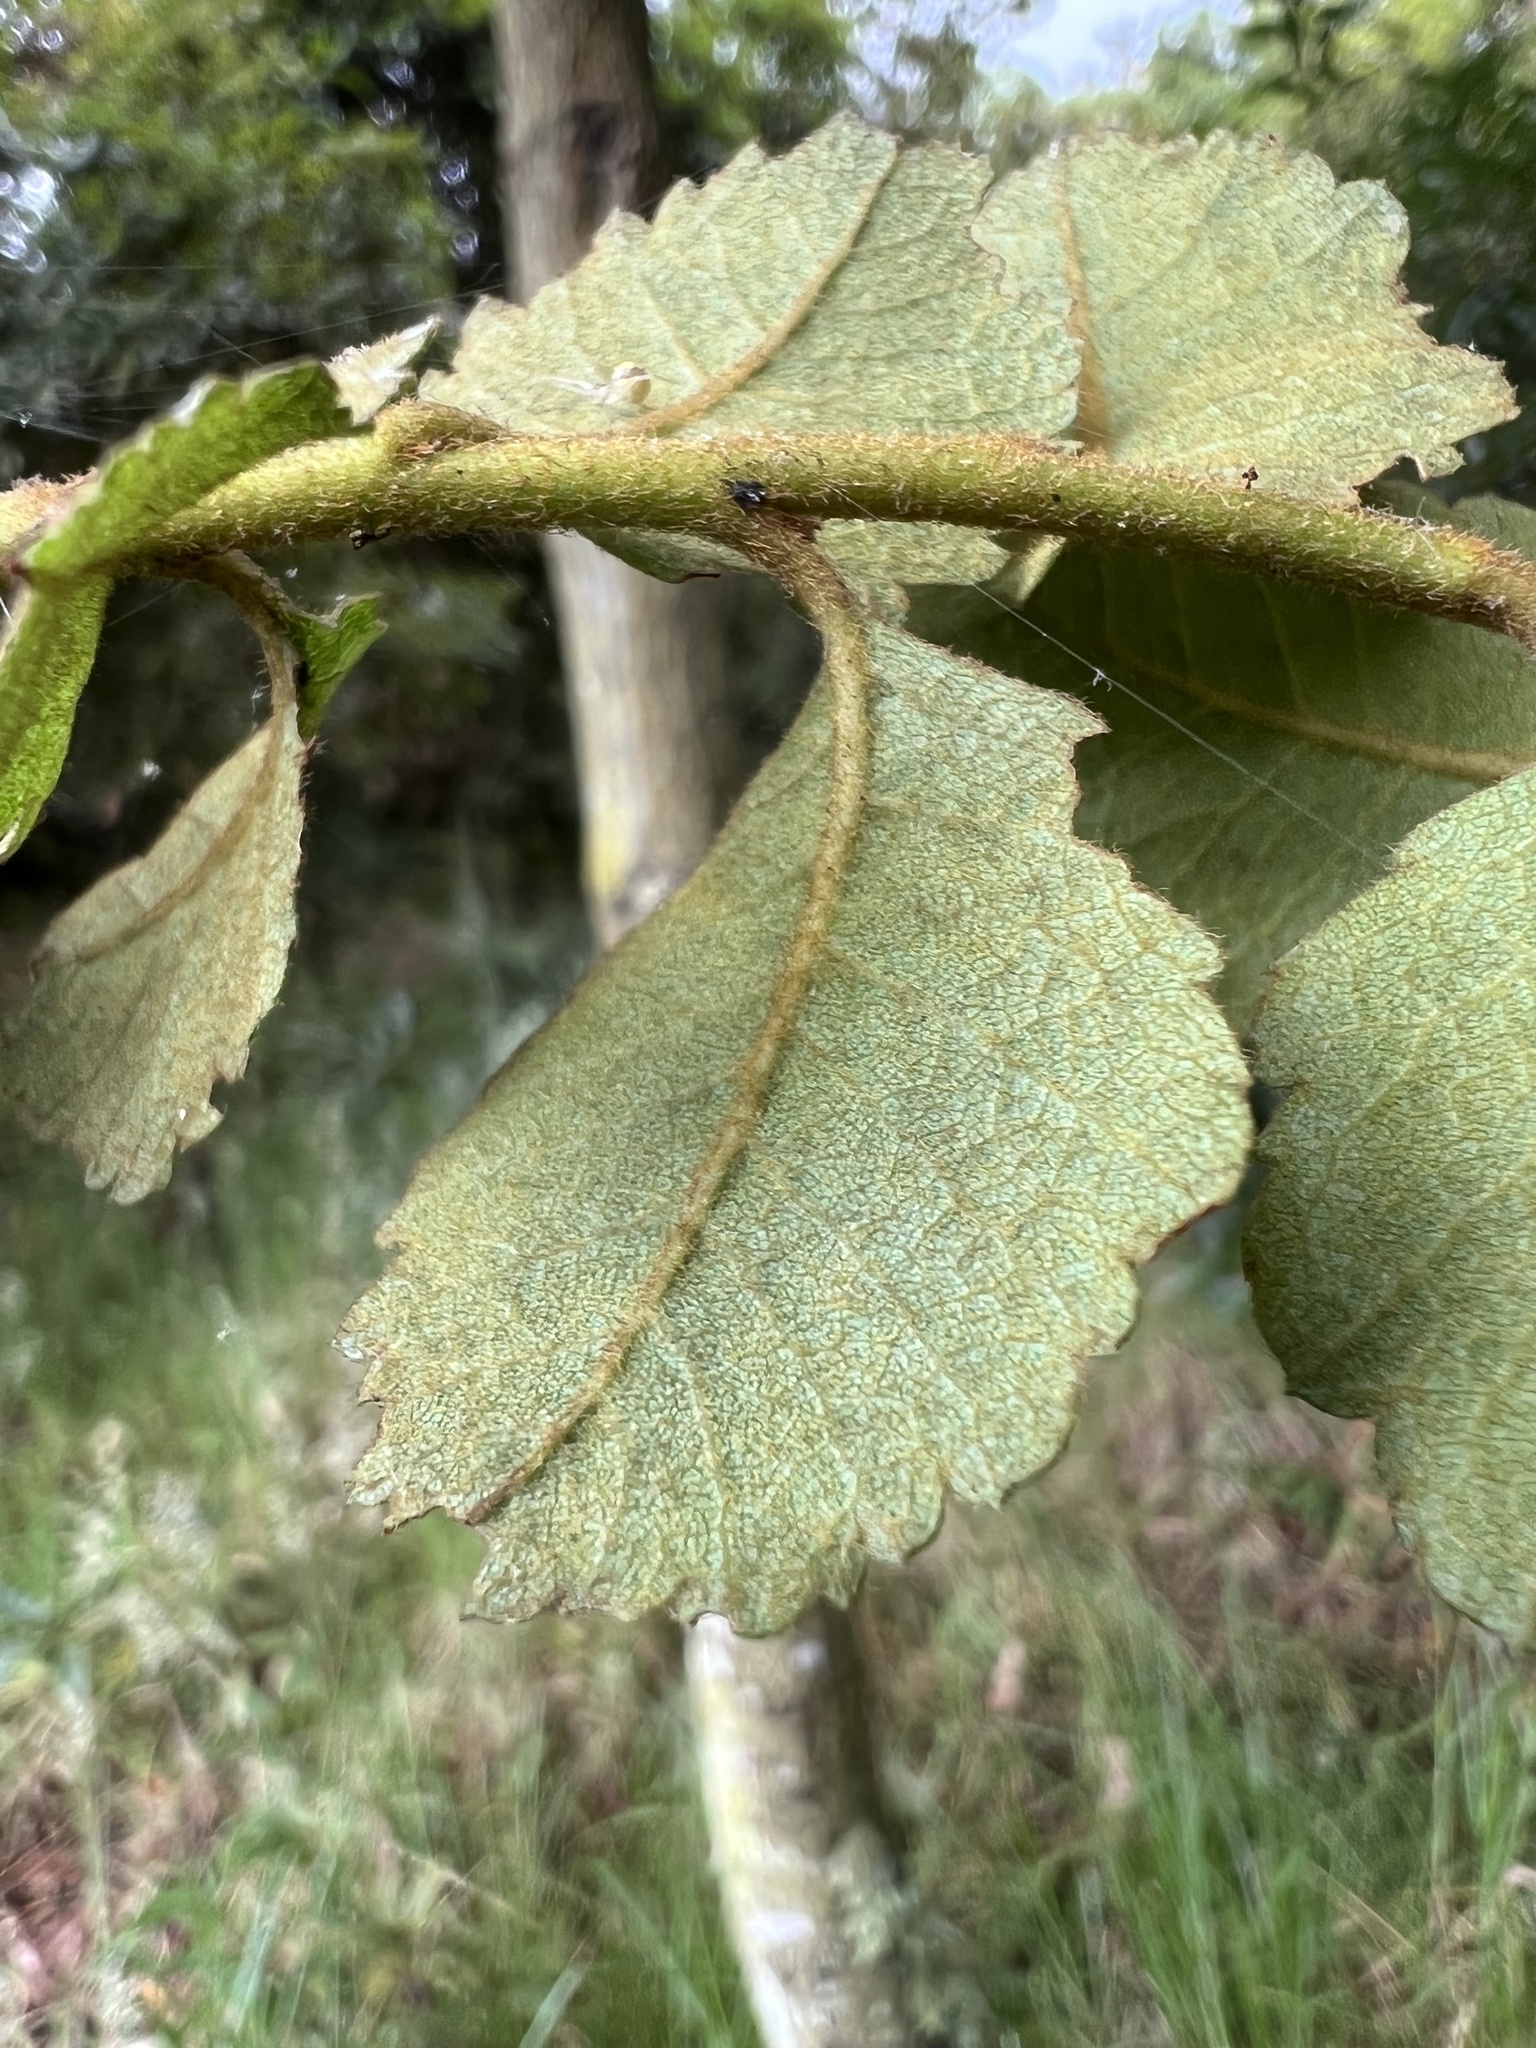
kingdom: Plantae
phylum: Tracheophyta
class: Magnoliopsida
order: Rosales
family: Rosaceae
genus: Hesperomeles
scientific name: Hesperomeles goudotiana
